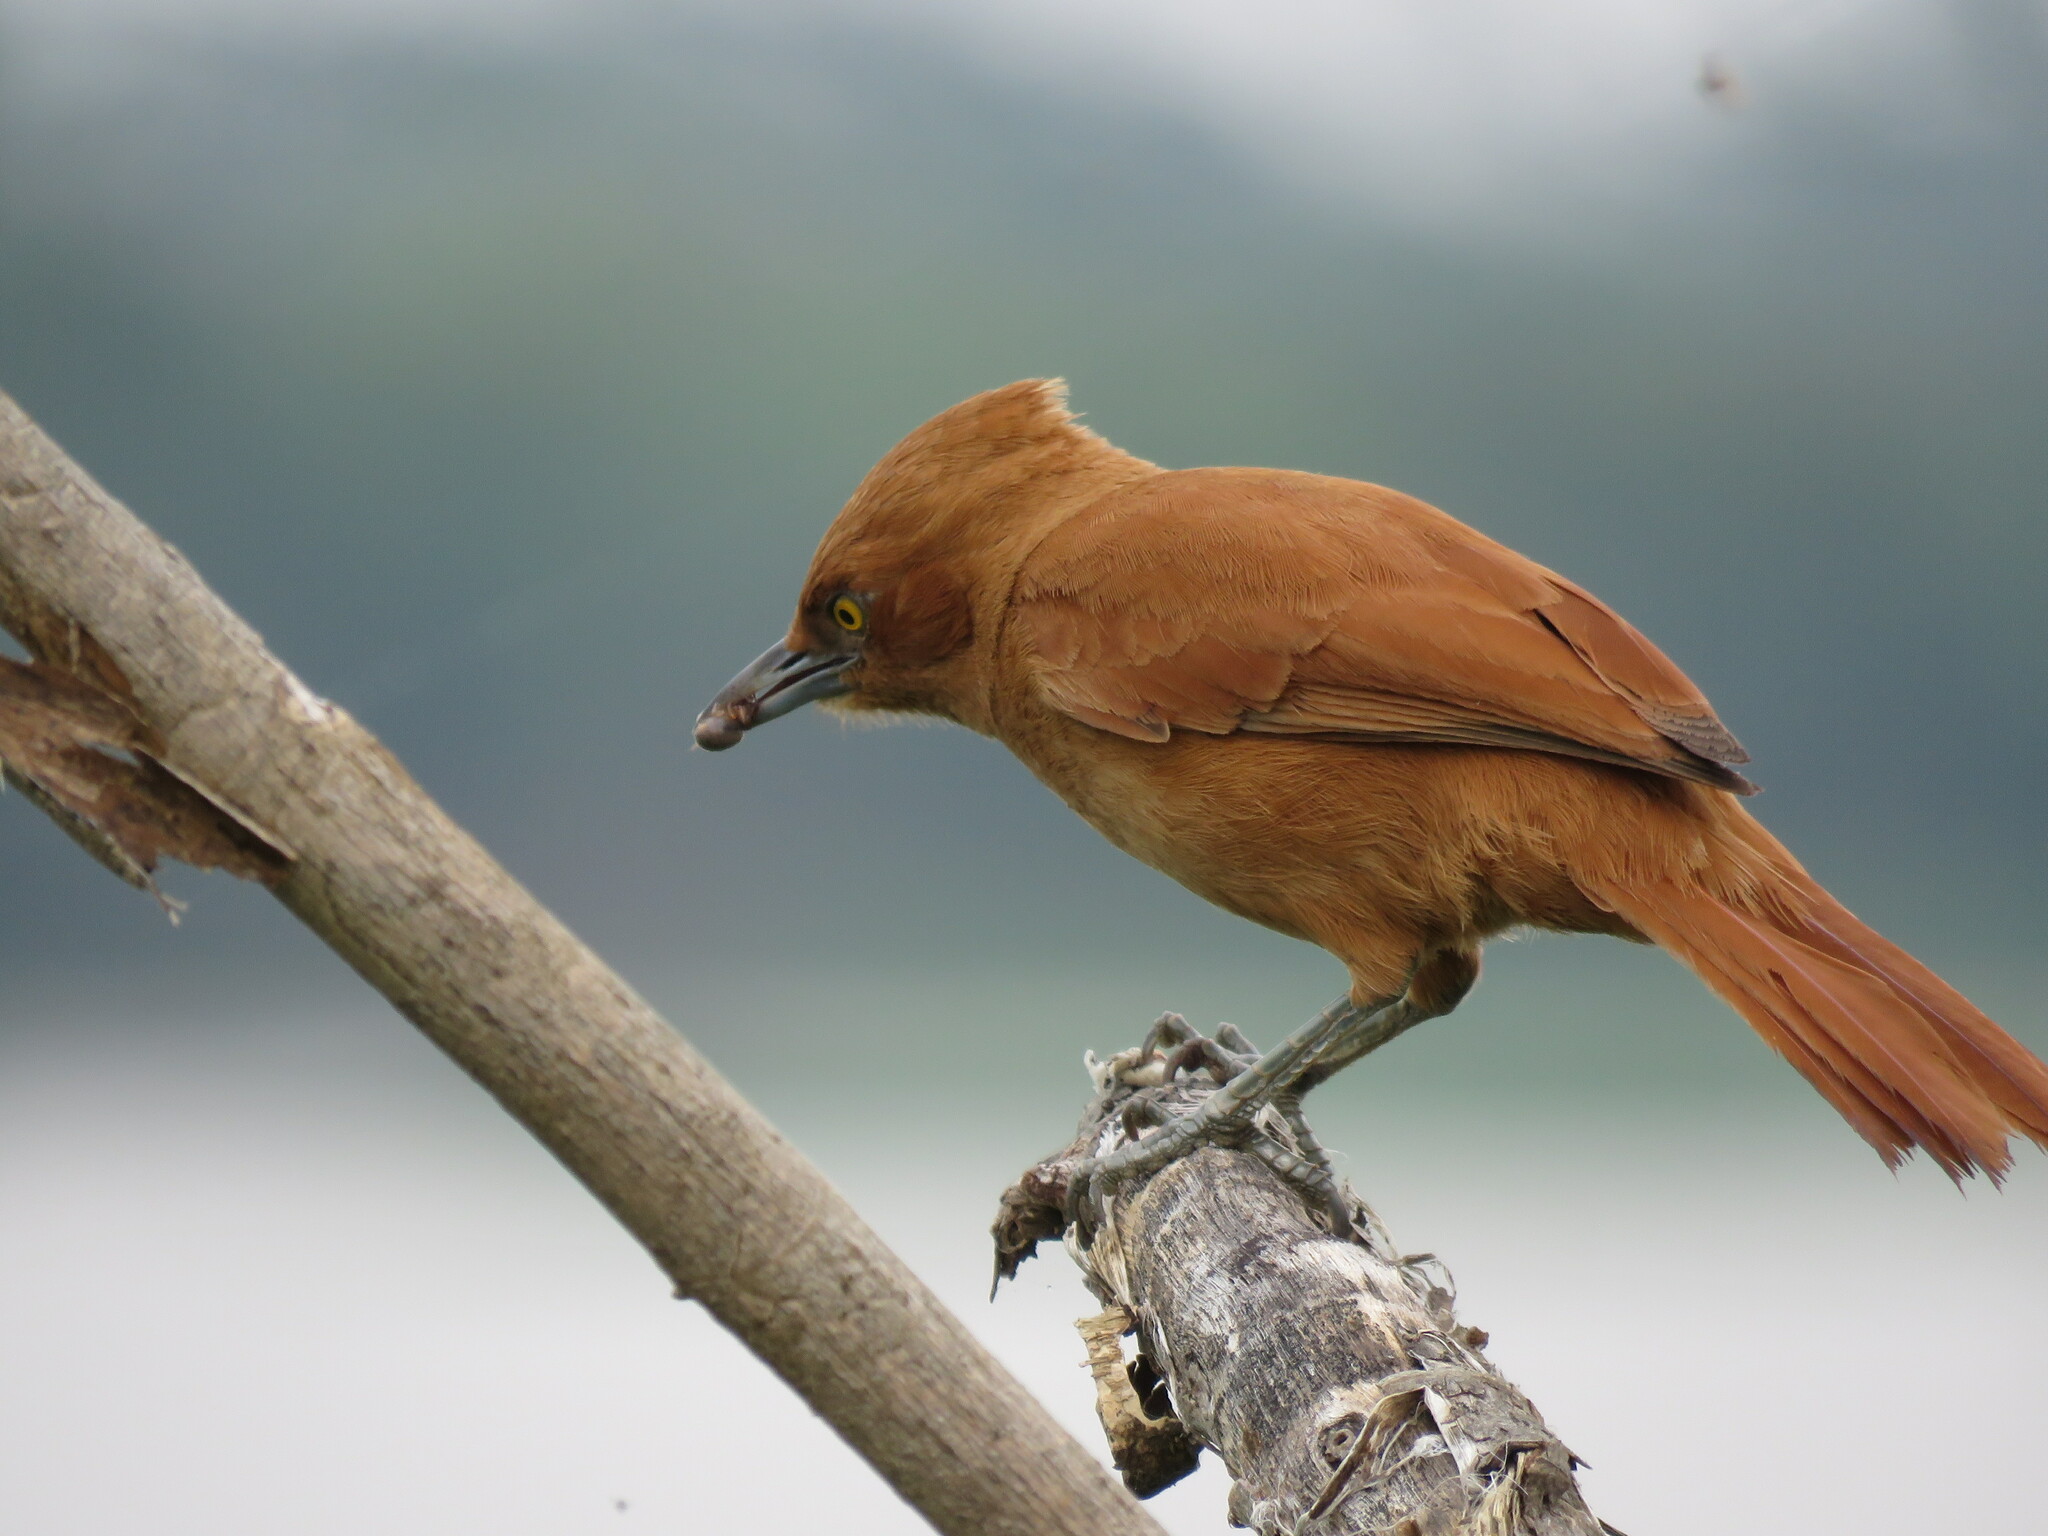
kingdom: Animalia
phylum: Chordata
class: Aves
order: Passeriformes
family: Furnariidae
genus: Pseudoseisura
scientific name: Pseudoseisura unirufa
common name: Grey-crested cacholote
